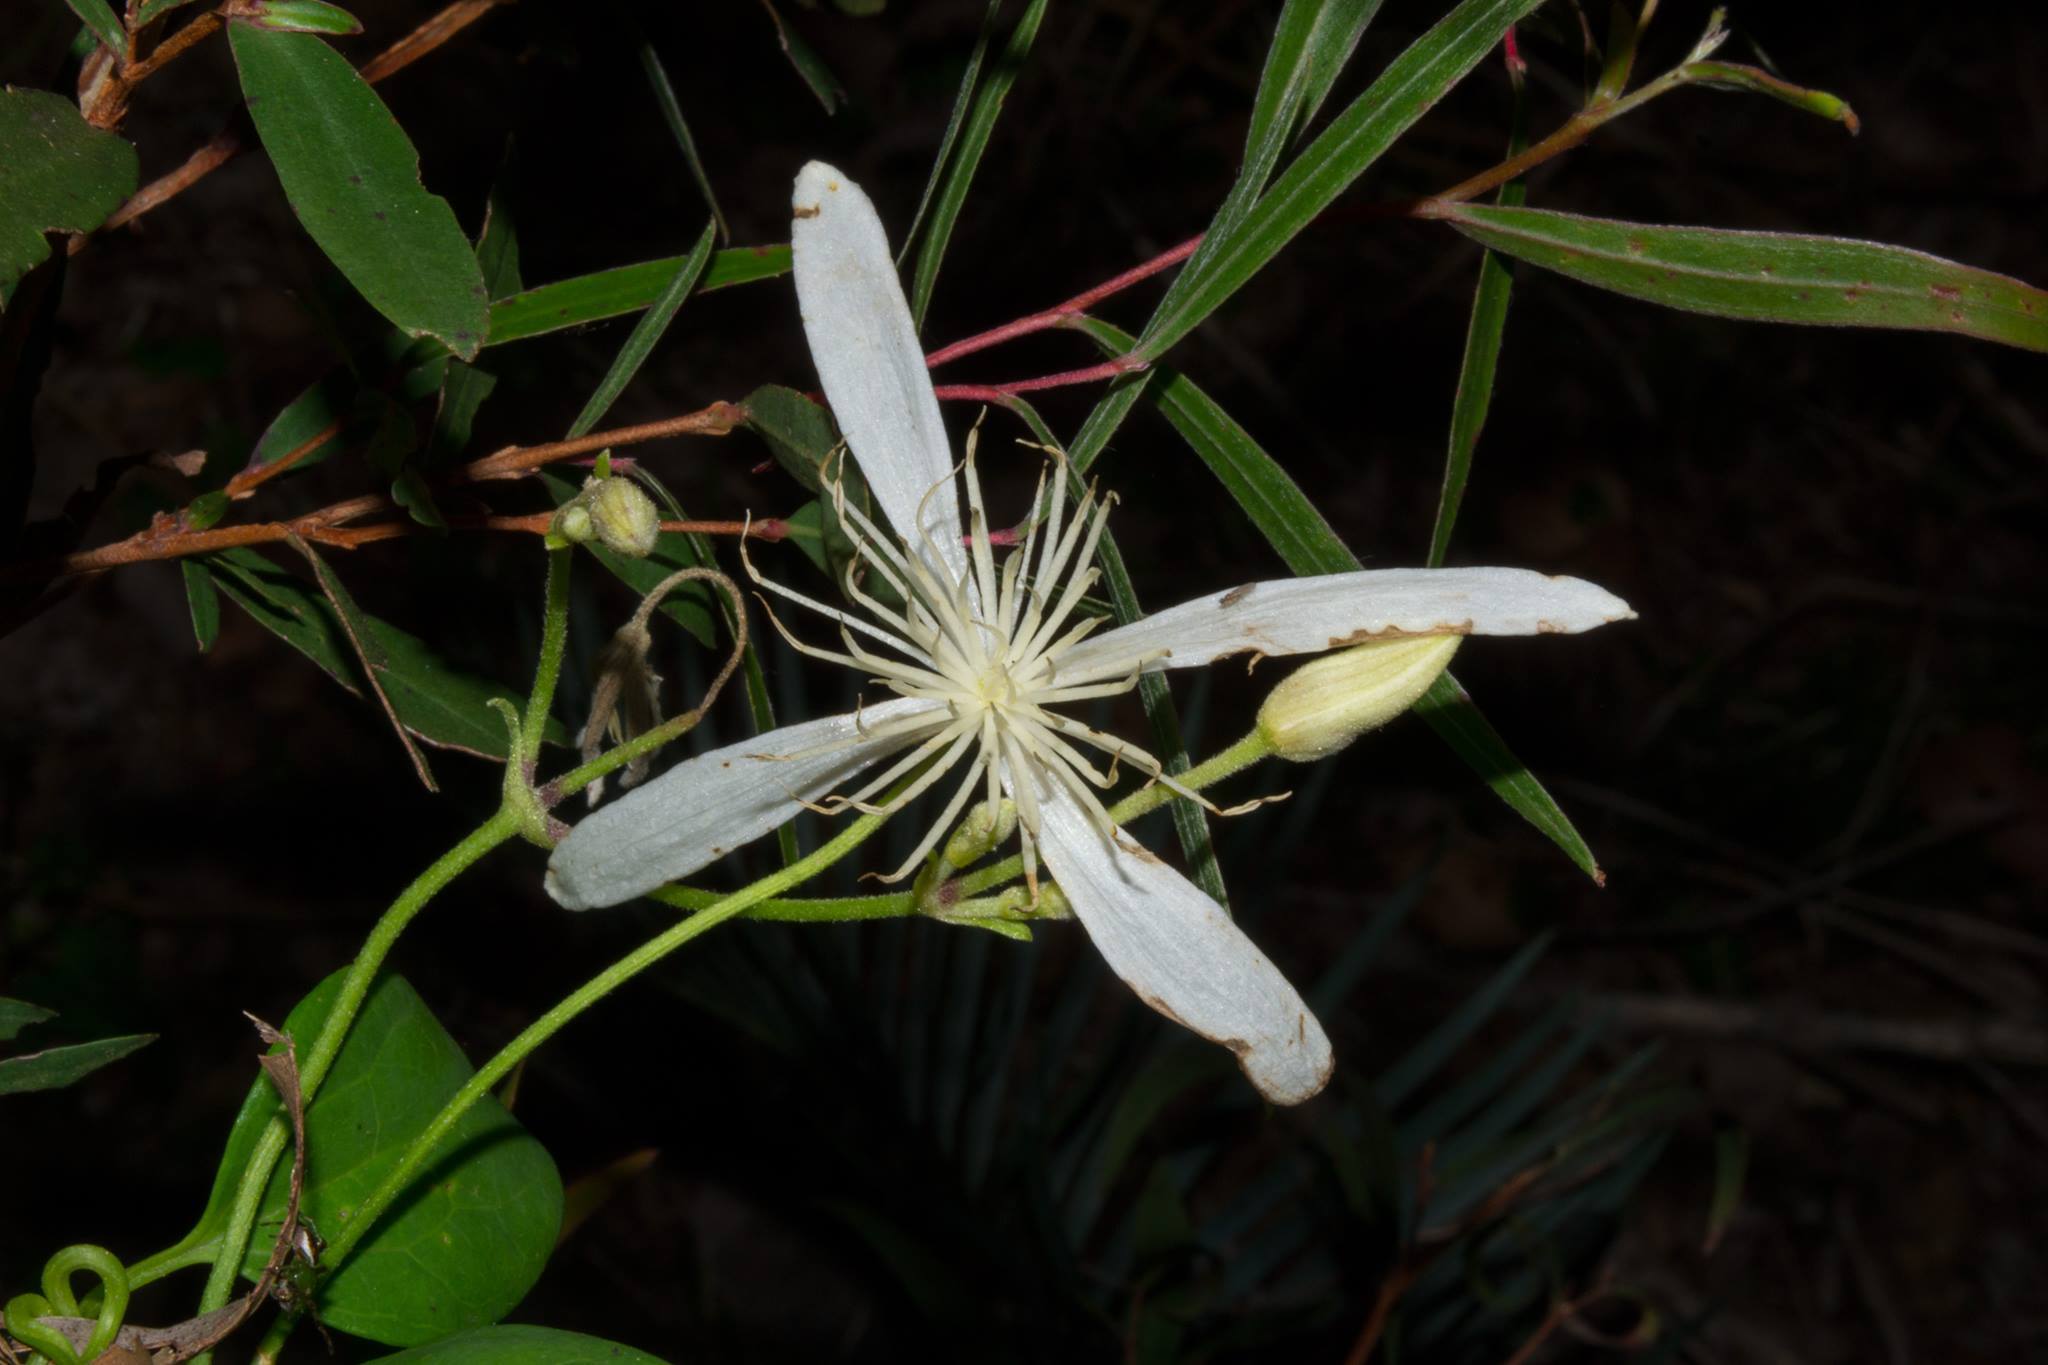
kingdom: Plantae
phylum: Tracheophyta
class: Magnoliopsida
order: Ranunculales
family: Ranunculaceae
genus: Clematis
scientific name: Clematis pubescens
